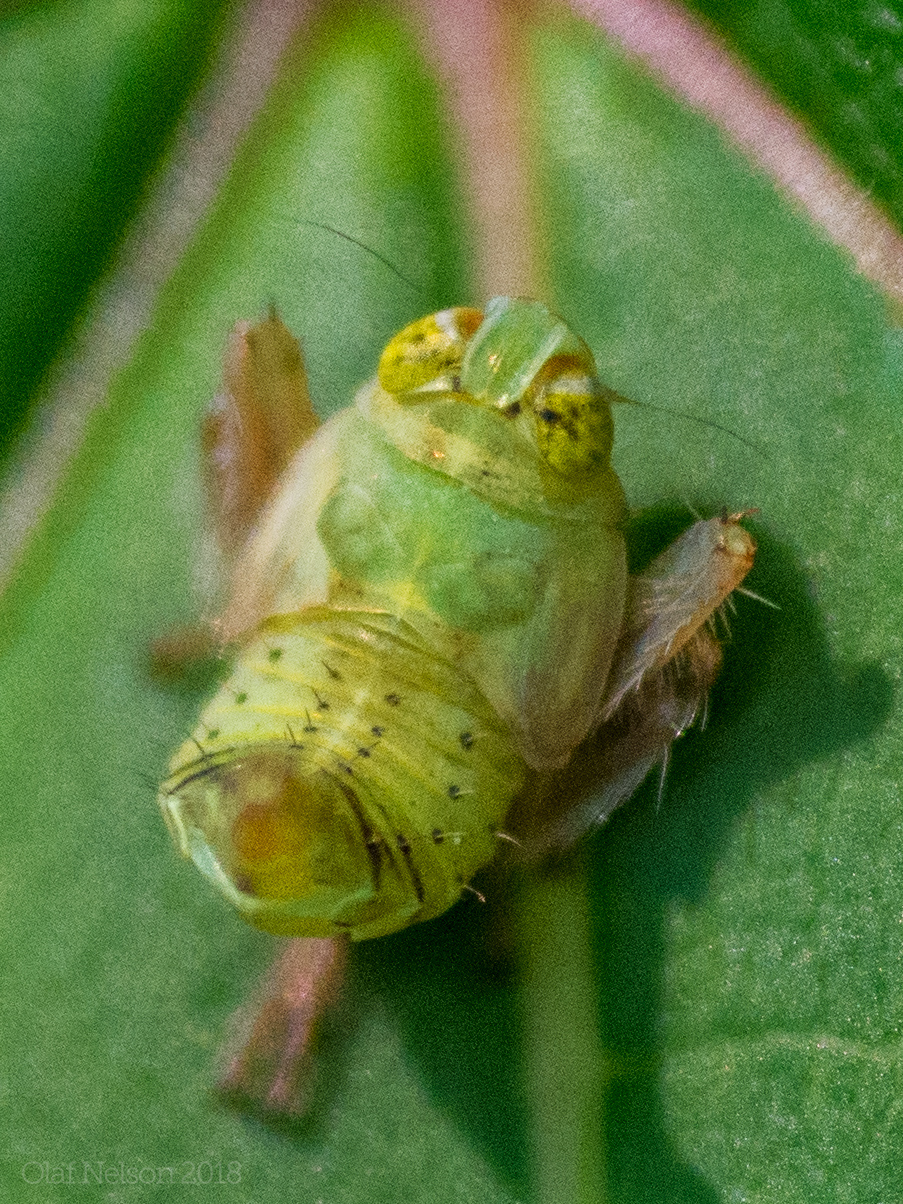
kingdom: Animalia
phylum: Arthropoda
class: Insecta
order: Hemiptera
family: Cicadellidae
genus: Jikradia
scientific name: Jikradia olitoria
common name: Coppery leafhopper
